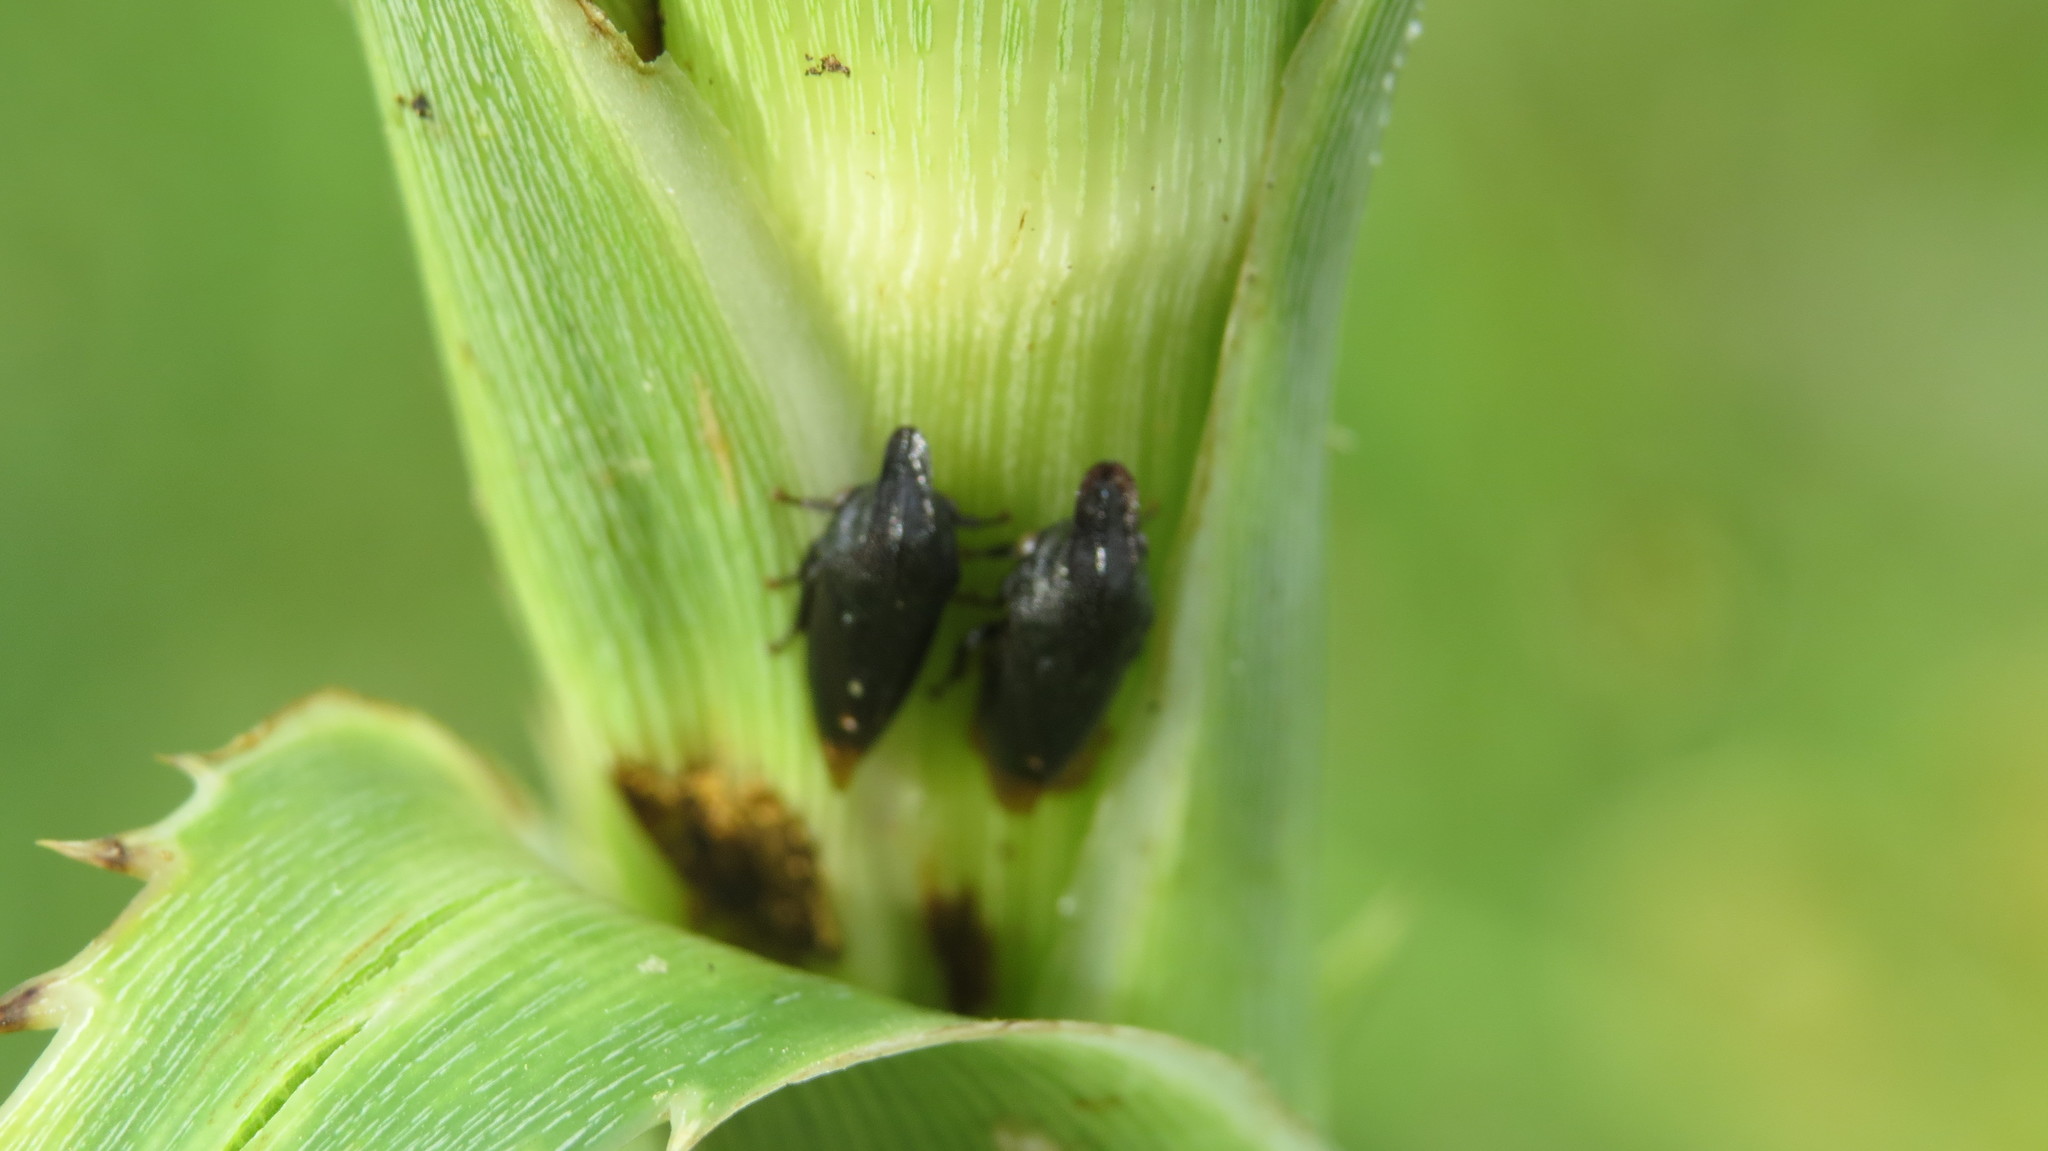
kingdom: Animalia
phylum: Arthropoda
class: Insecta
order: Hemiptera
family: Membracidae
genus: Kronides
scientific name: Kronides
